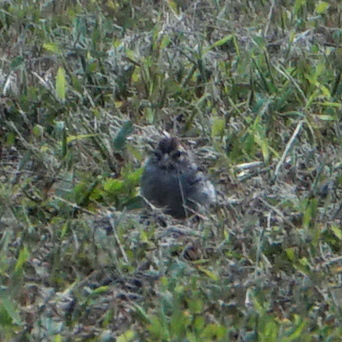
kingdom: Animalia
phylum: Chordata
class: Aves
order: Passeriformes
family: Passerellidae
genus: Spizella
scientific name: Spizella passerina
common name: Chipping sparrow
